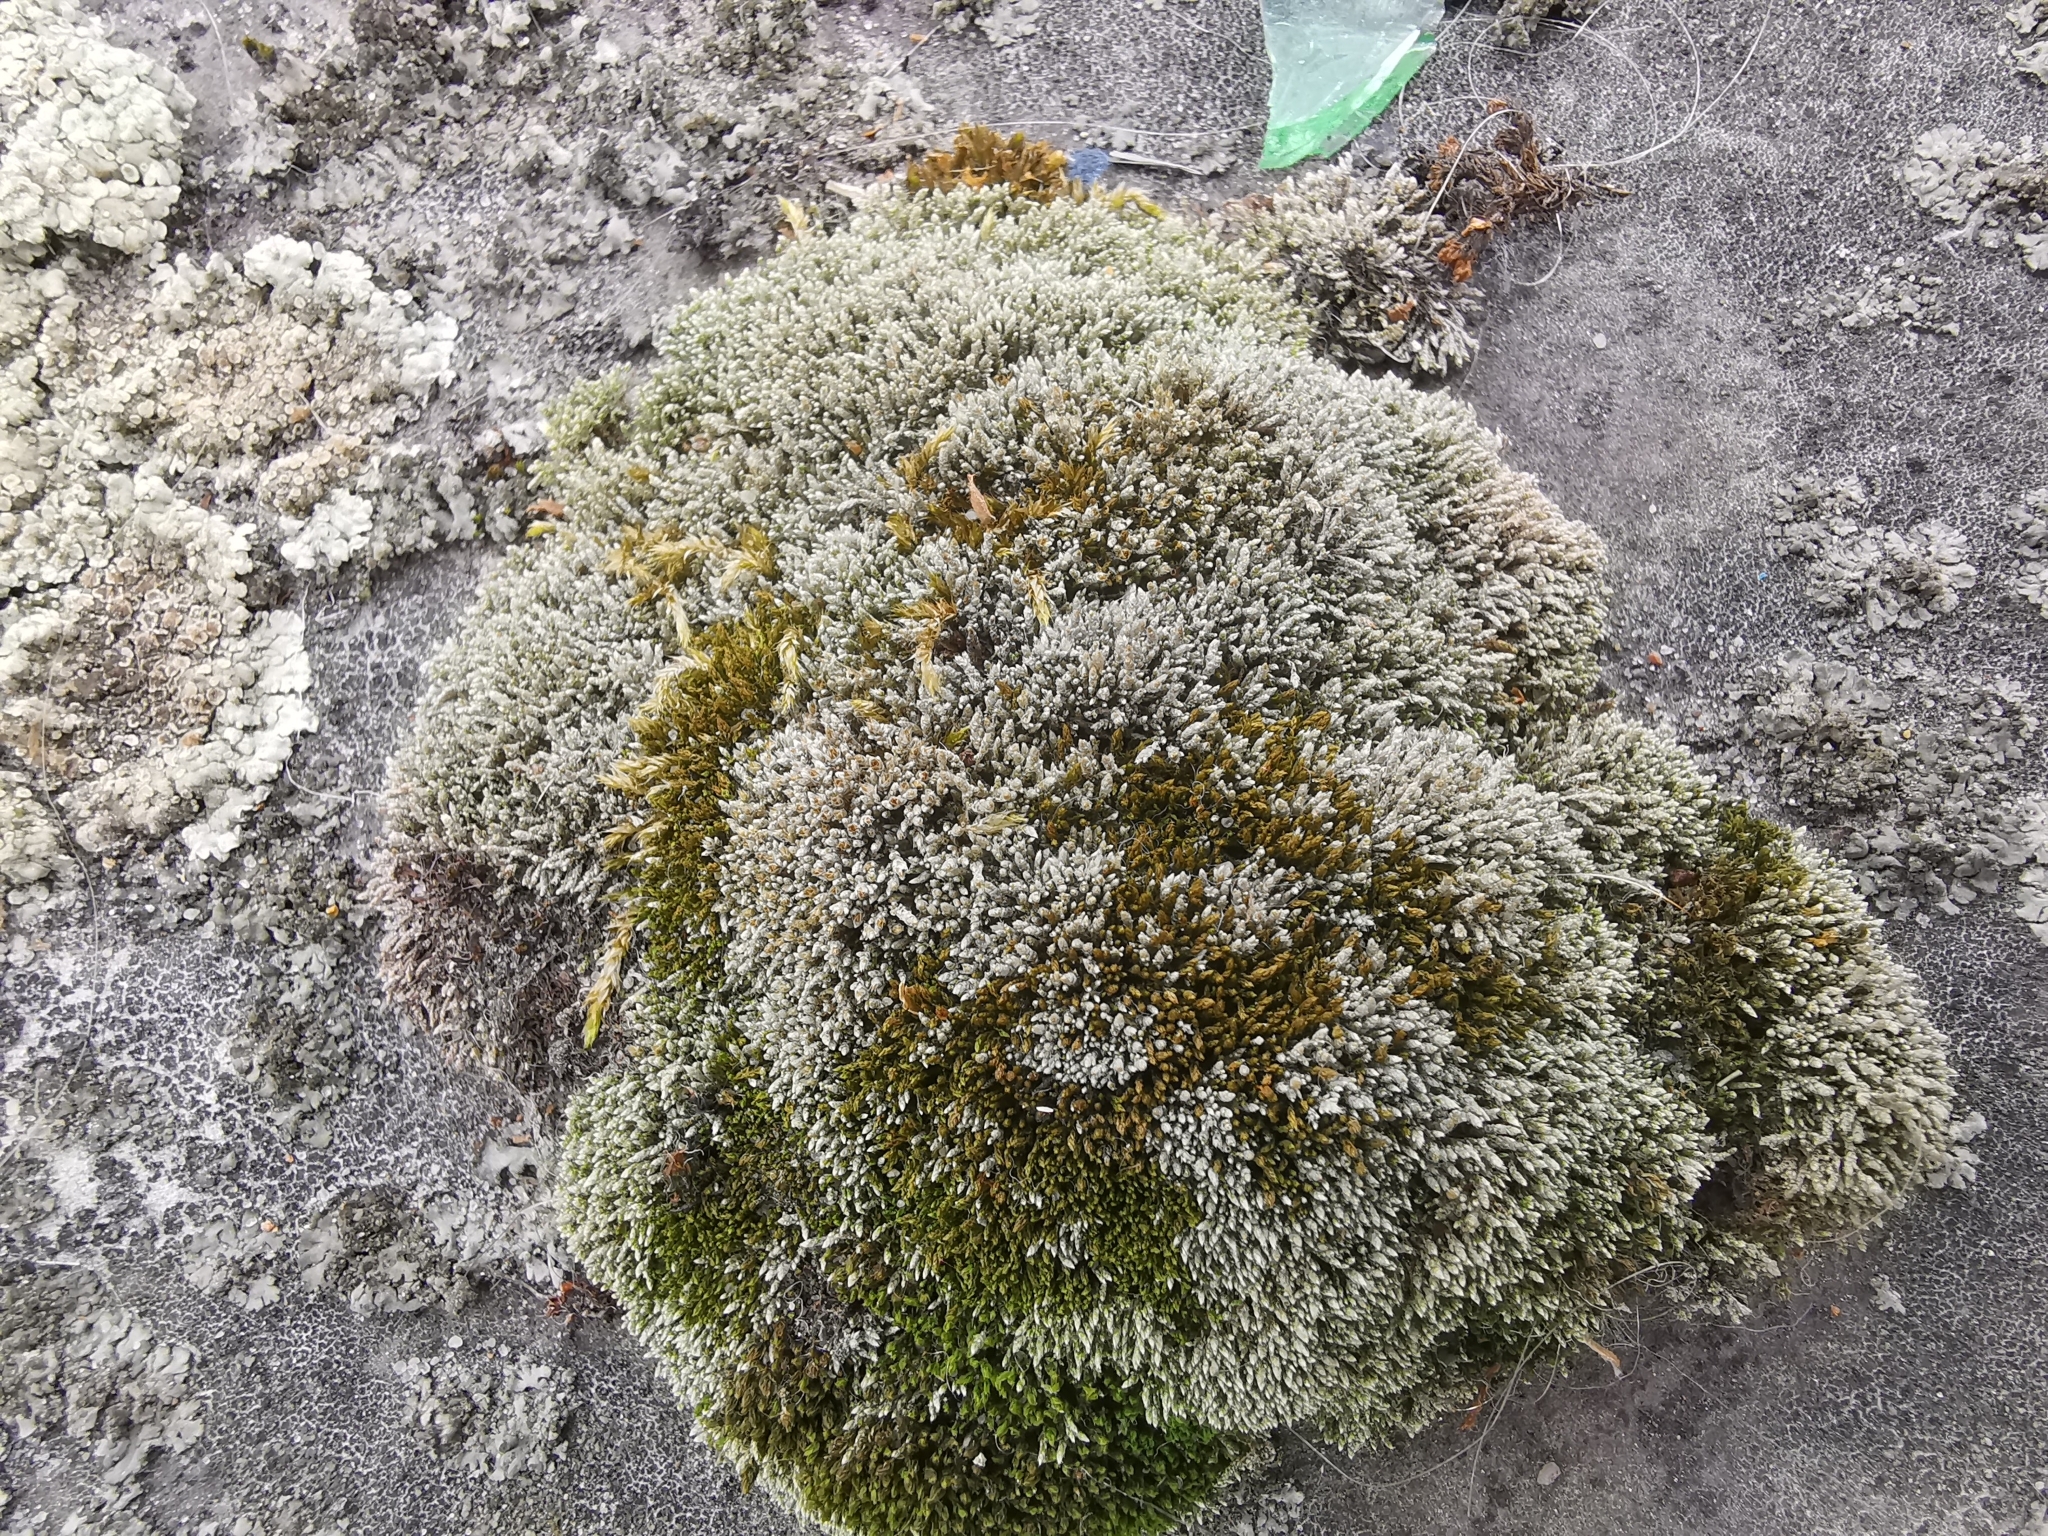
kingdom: Plantae
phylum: Bryophyta
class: Bryopsida
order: Bryales
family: Bryaceae
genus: Bryum
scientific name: Bryum argenteum
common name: Silver-moss
